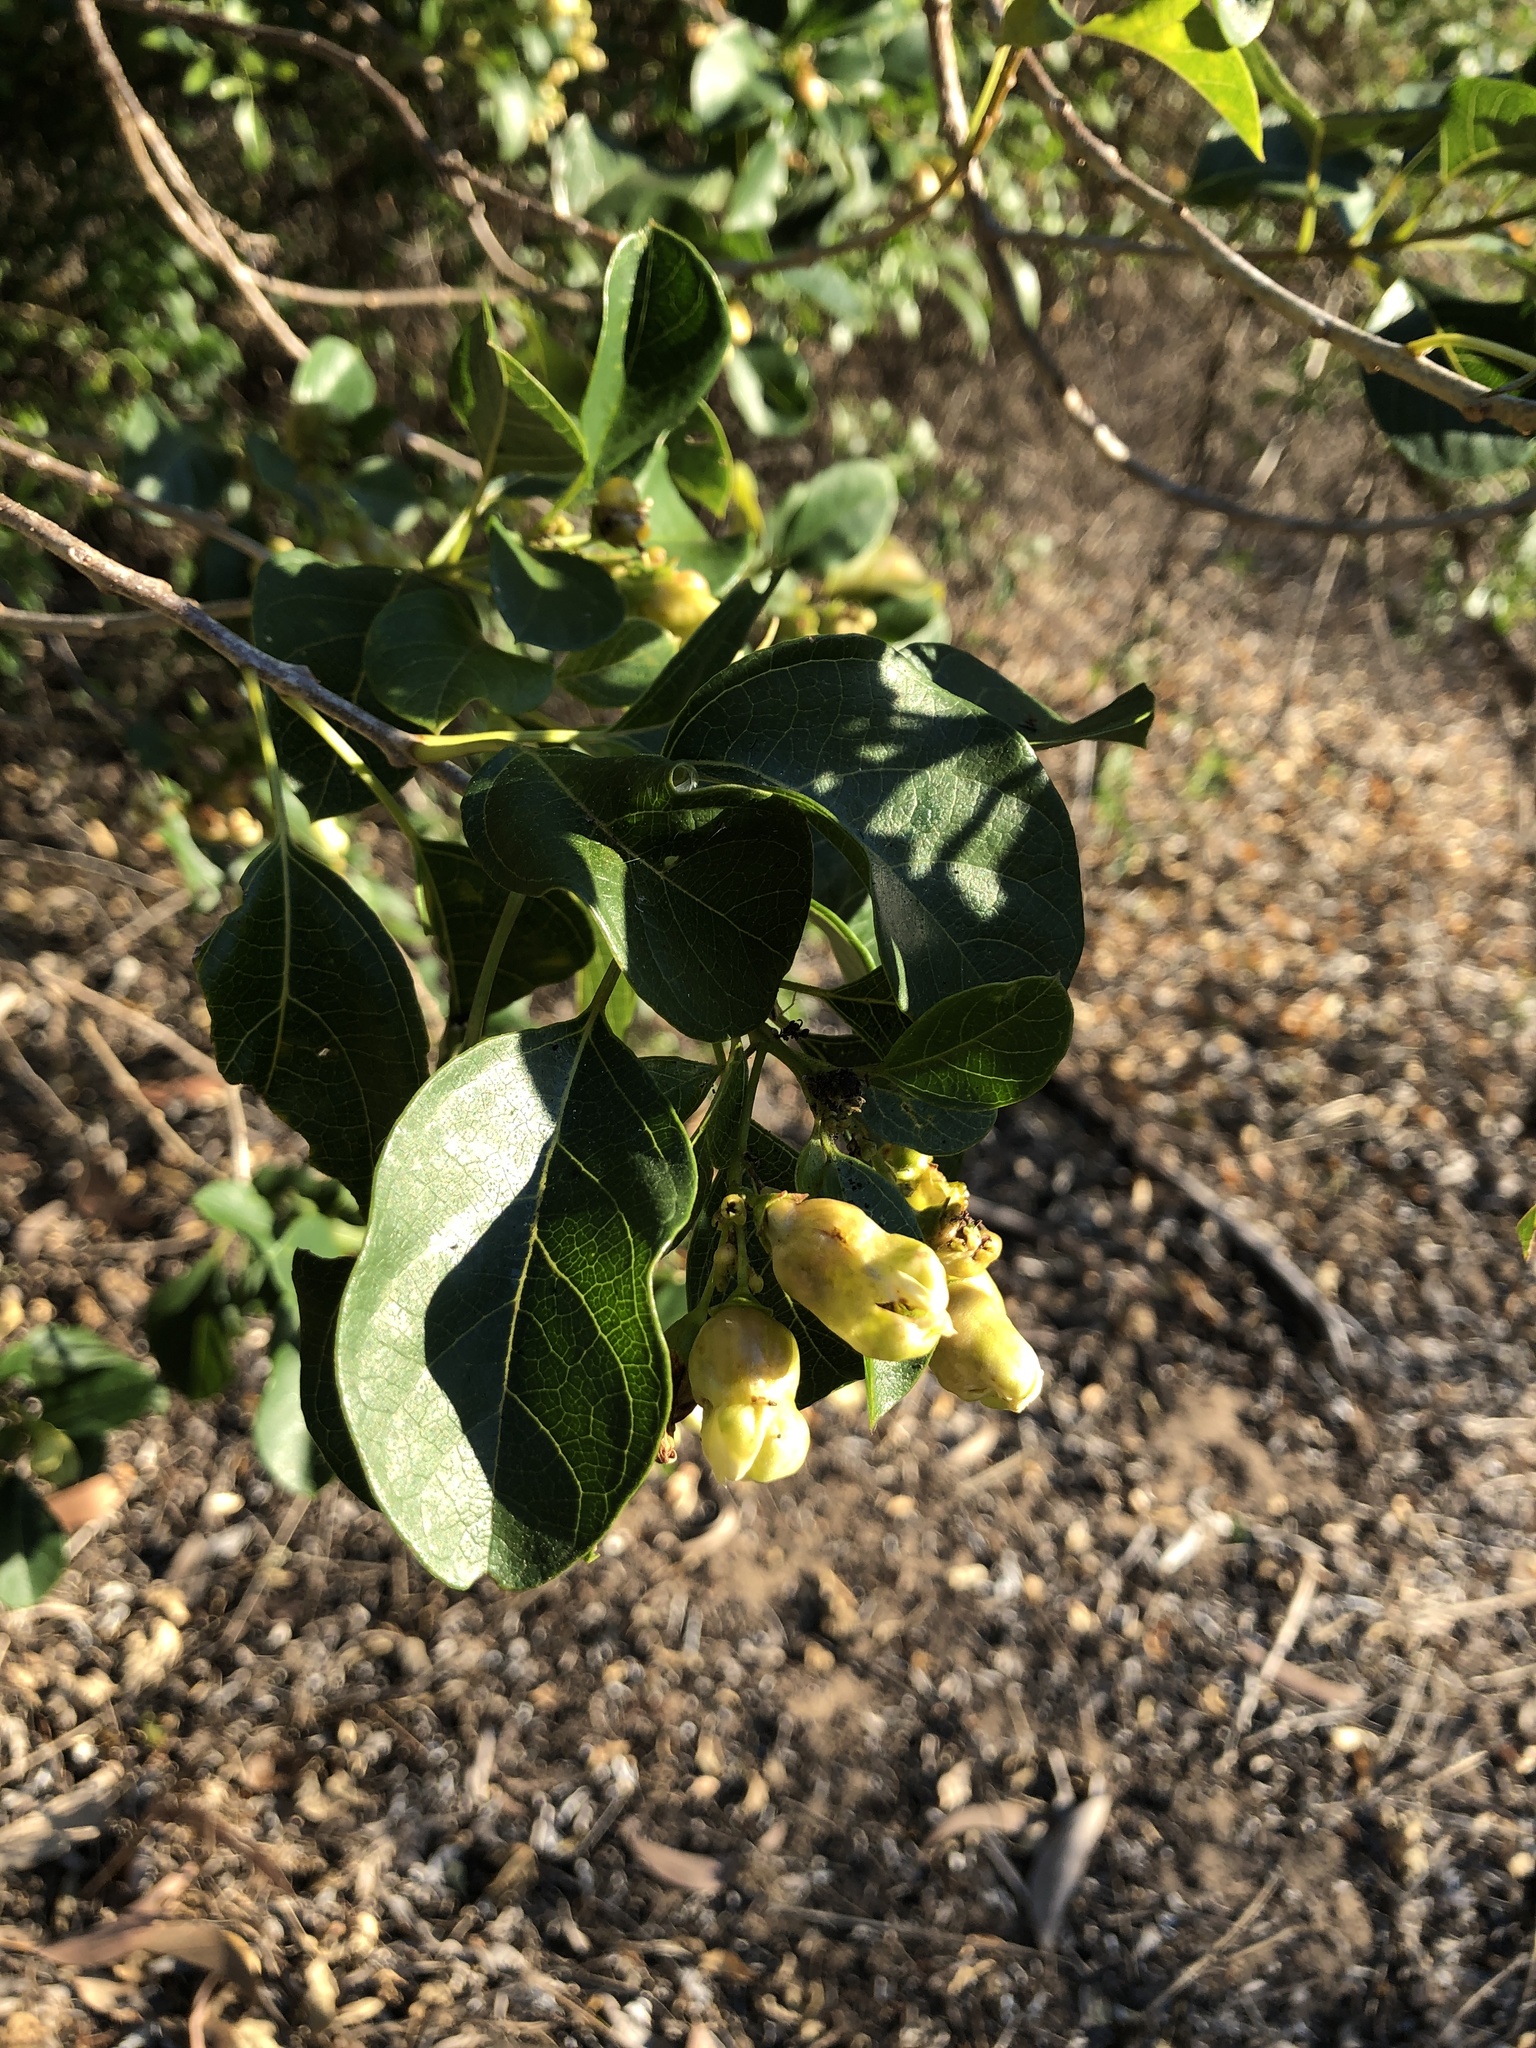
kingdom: Plantae
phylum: Tracheophyta
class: Magnoliopsida
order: Lamiales
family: Lamiaceae
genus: Clerodendrum
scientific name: Clerodendrum floribundum
